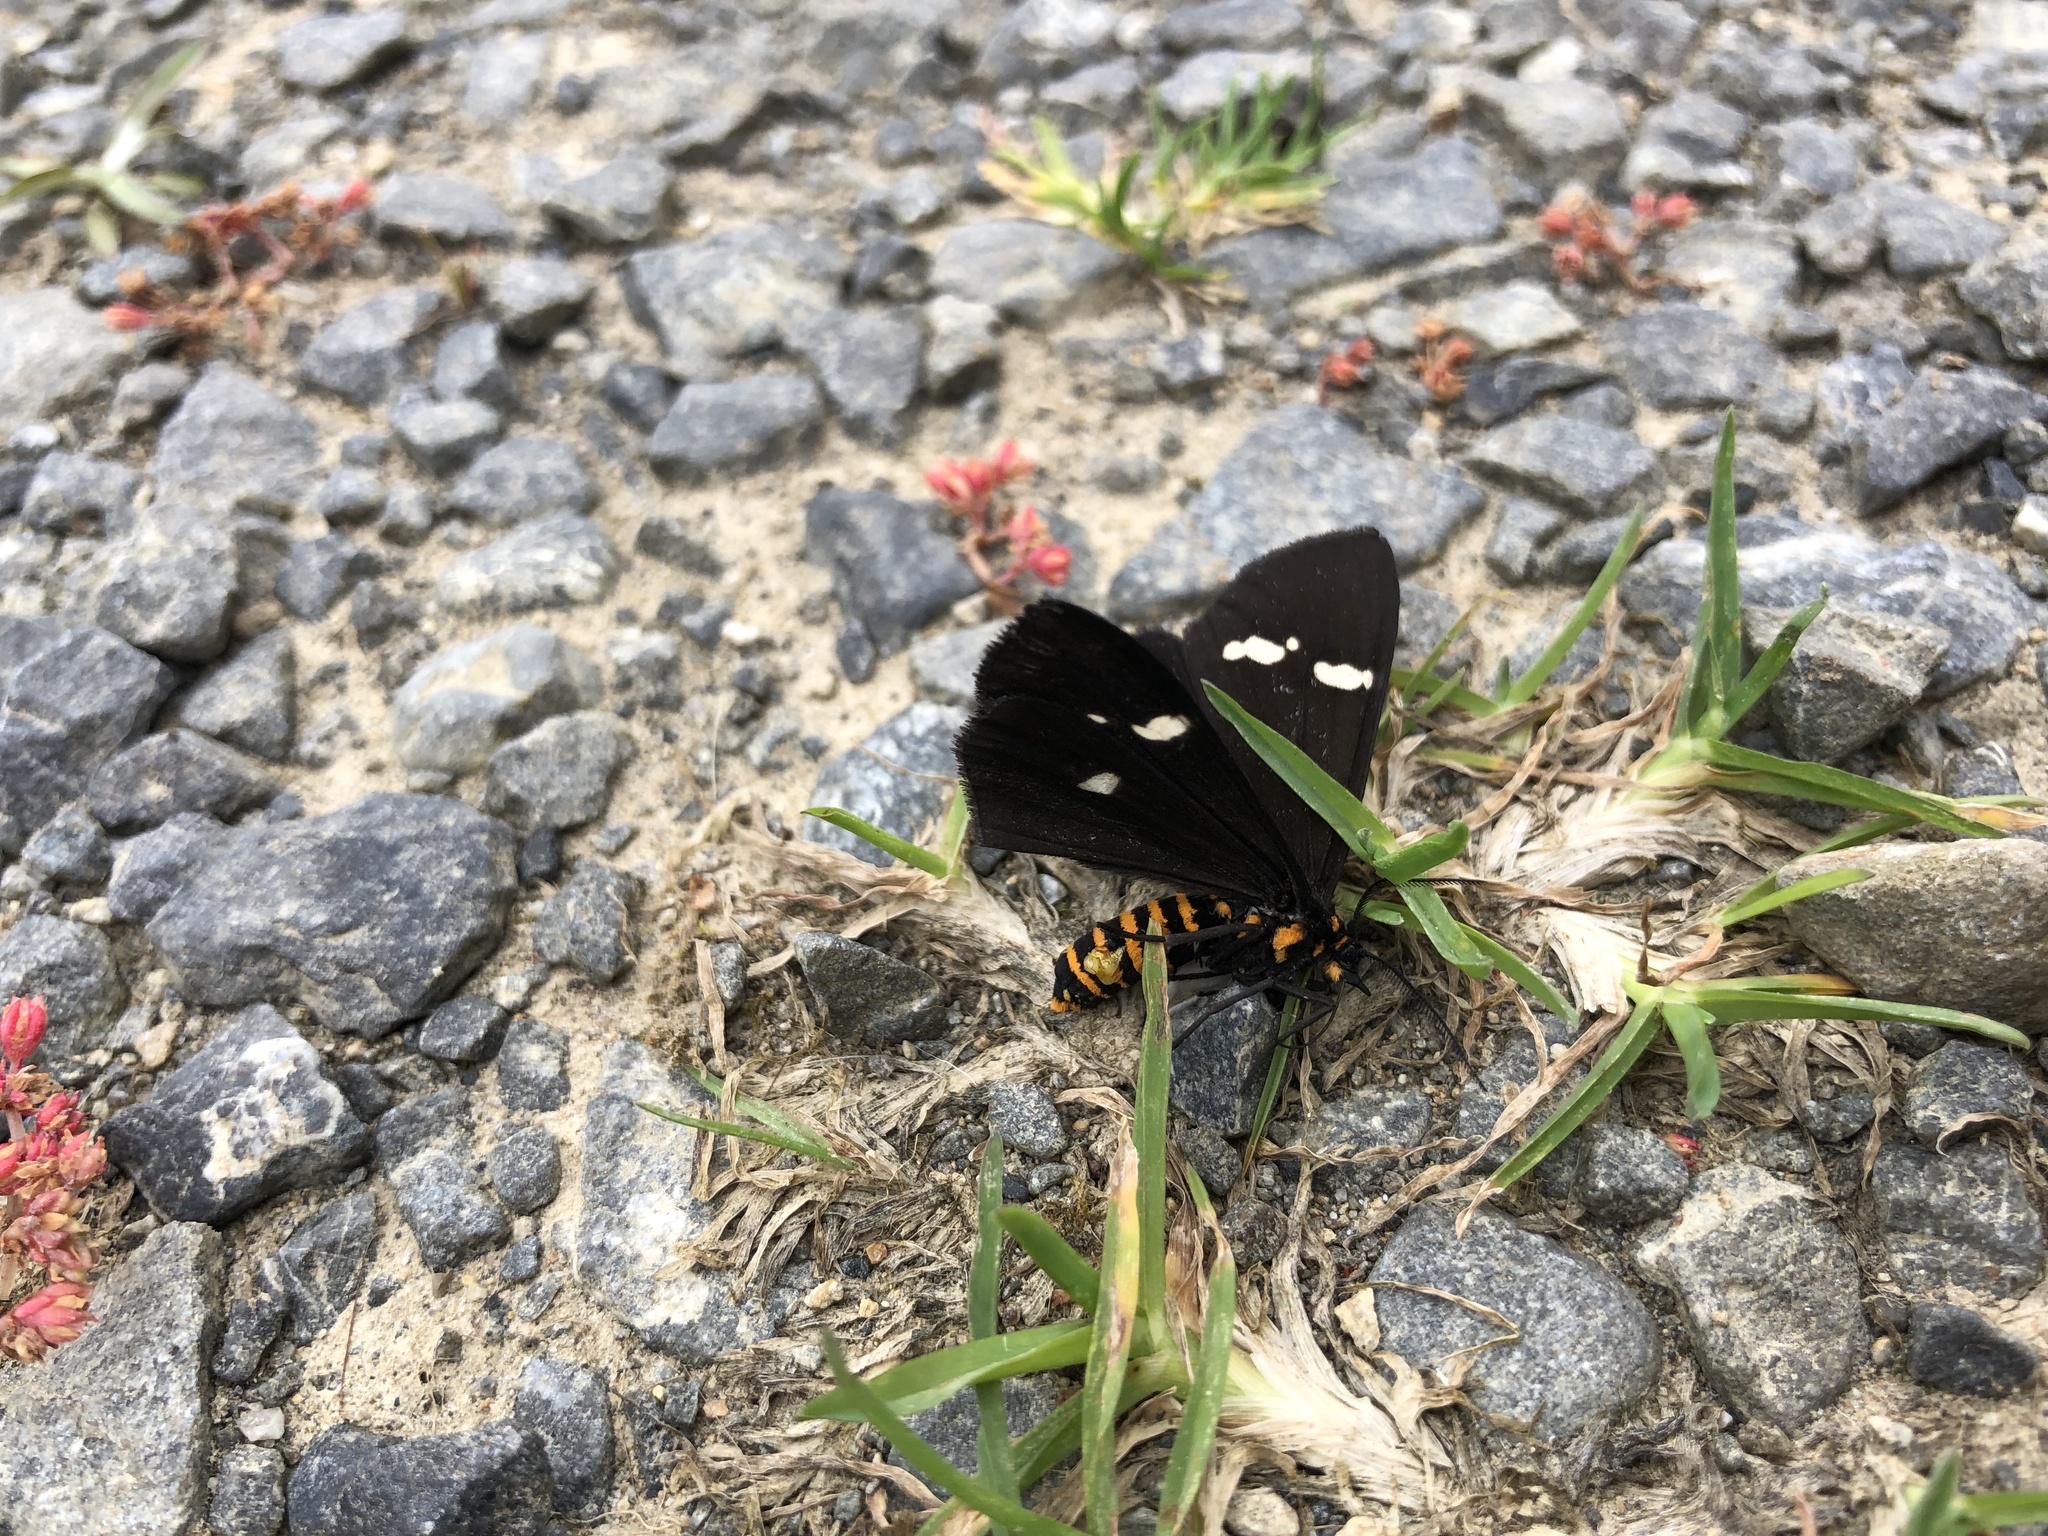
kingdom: Animalia
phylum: Arthropoda
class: Insecta
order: Lepidoptera
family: Erebidae
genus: Nyctemera
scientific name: Nyctemera annulatum
